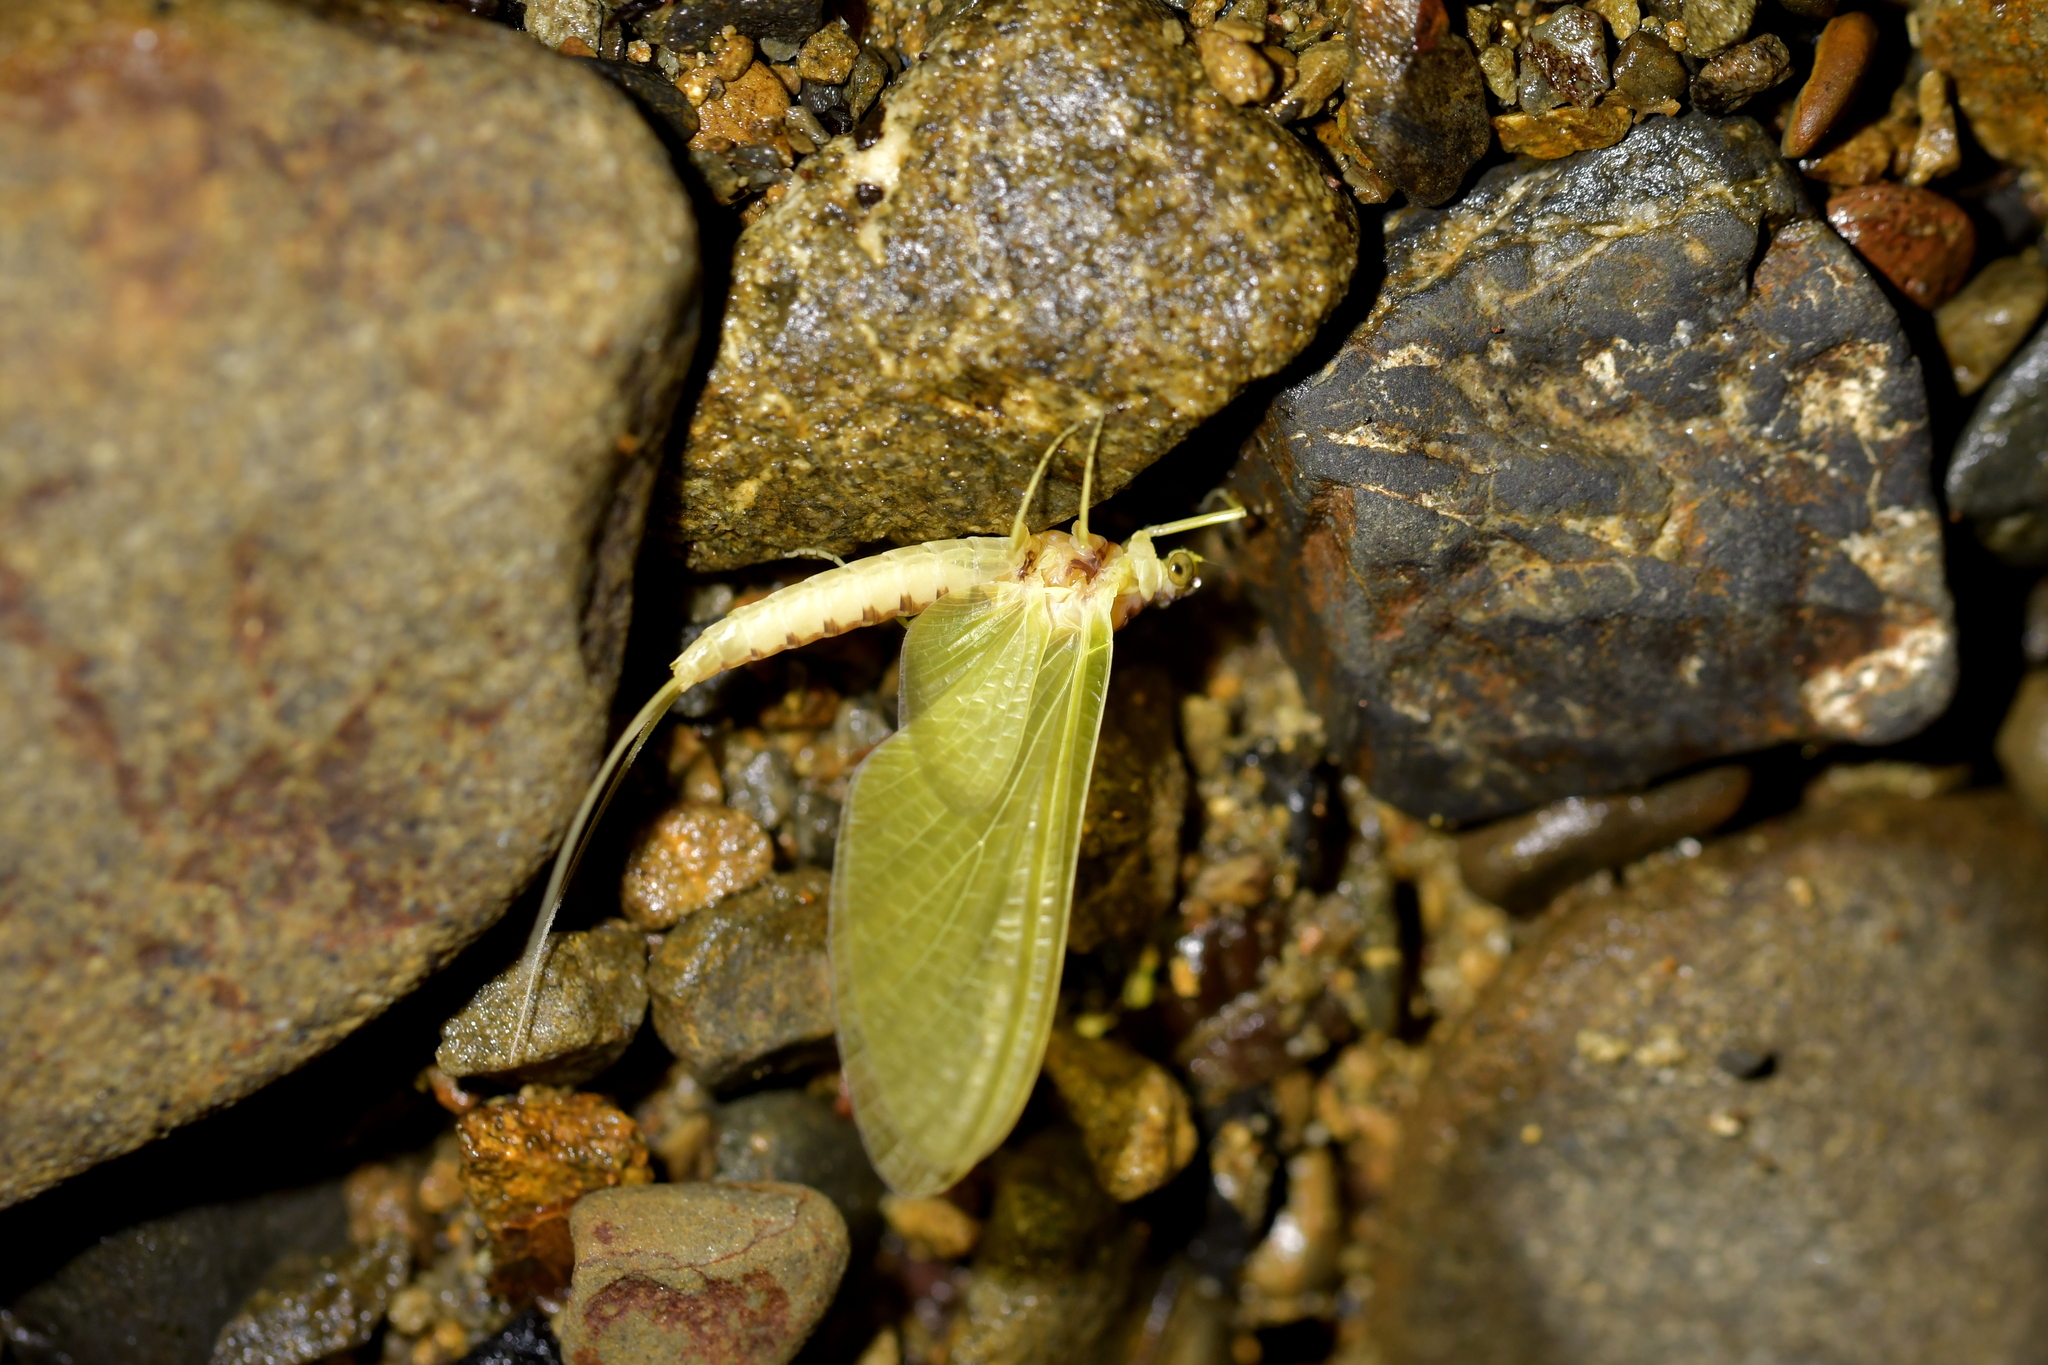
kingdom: Animalia
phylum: Arthropoda
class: Insecta
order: Ephemeroptera
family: Ameletopsidae
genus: Ameletopsis
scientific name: Ameletopsis perscitus
